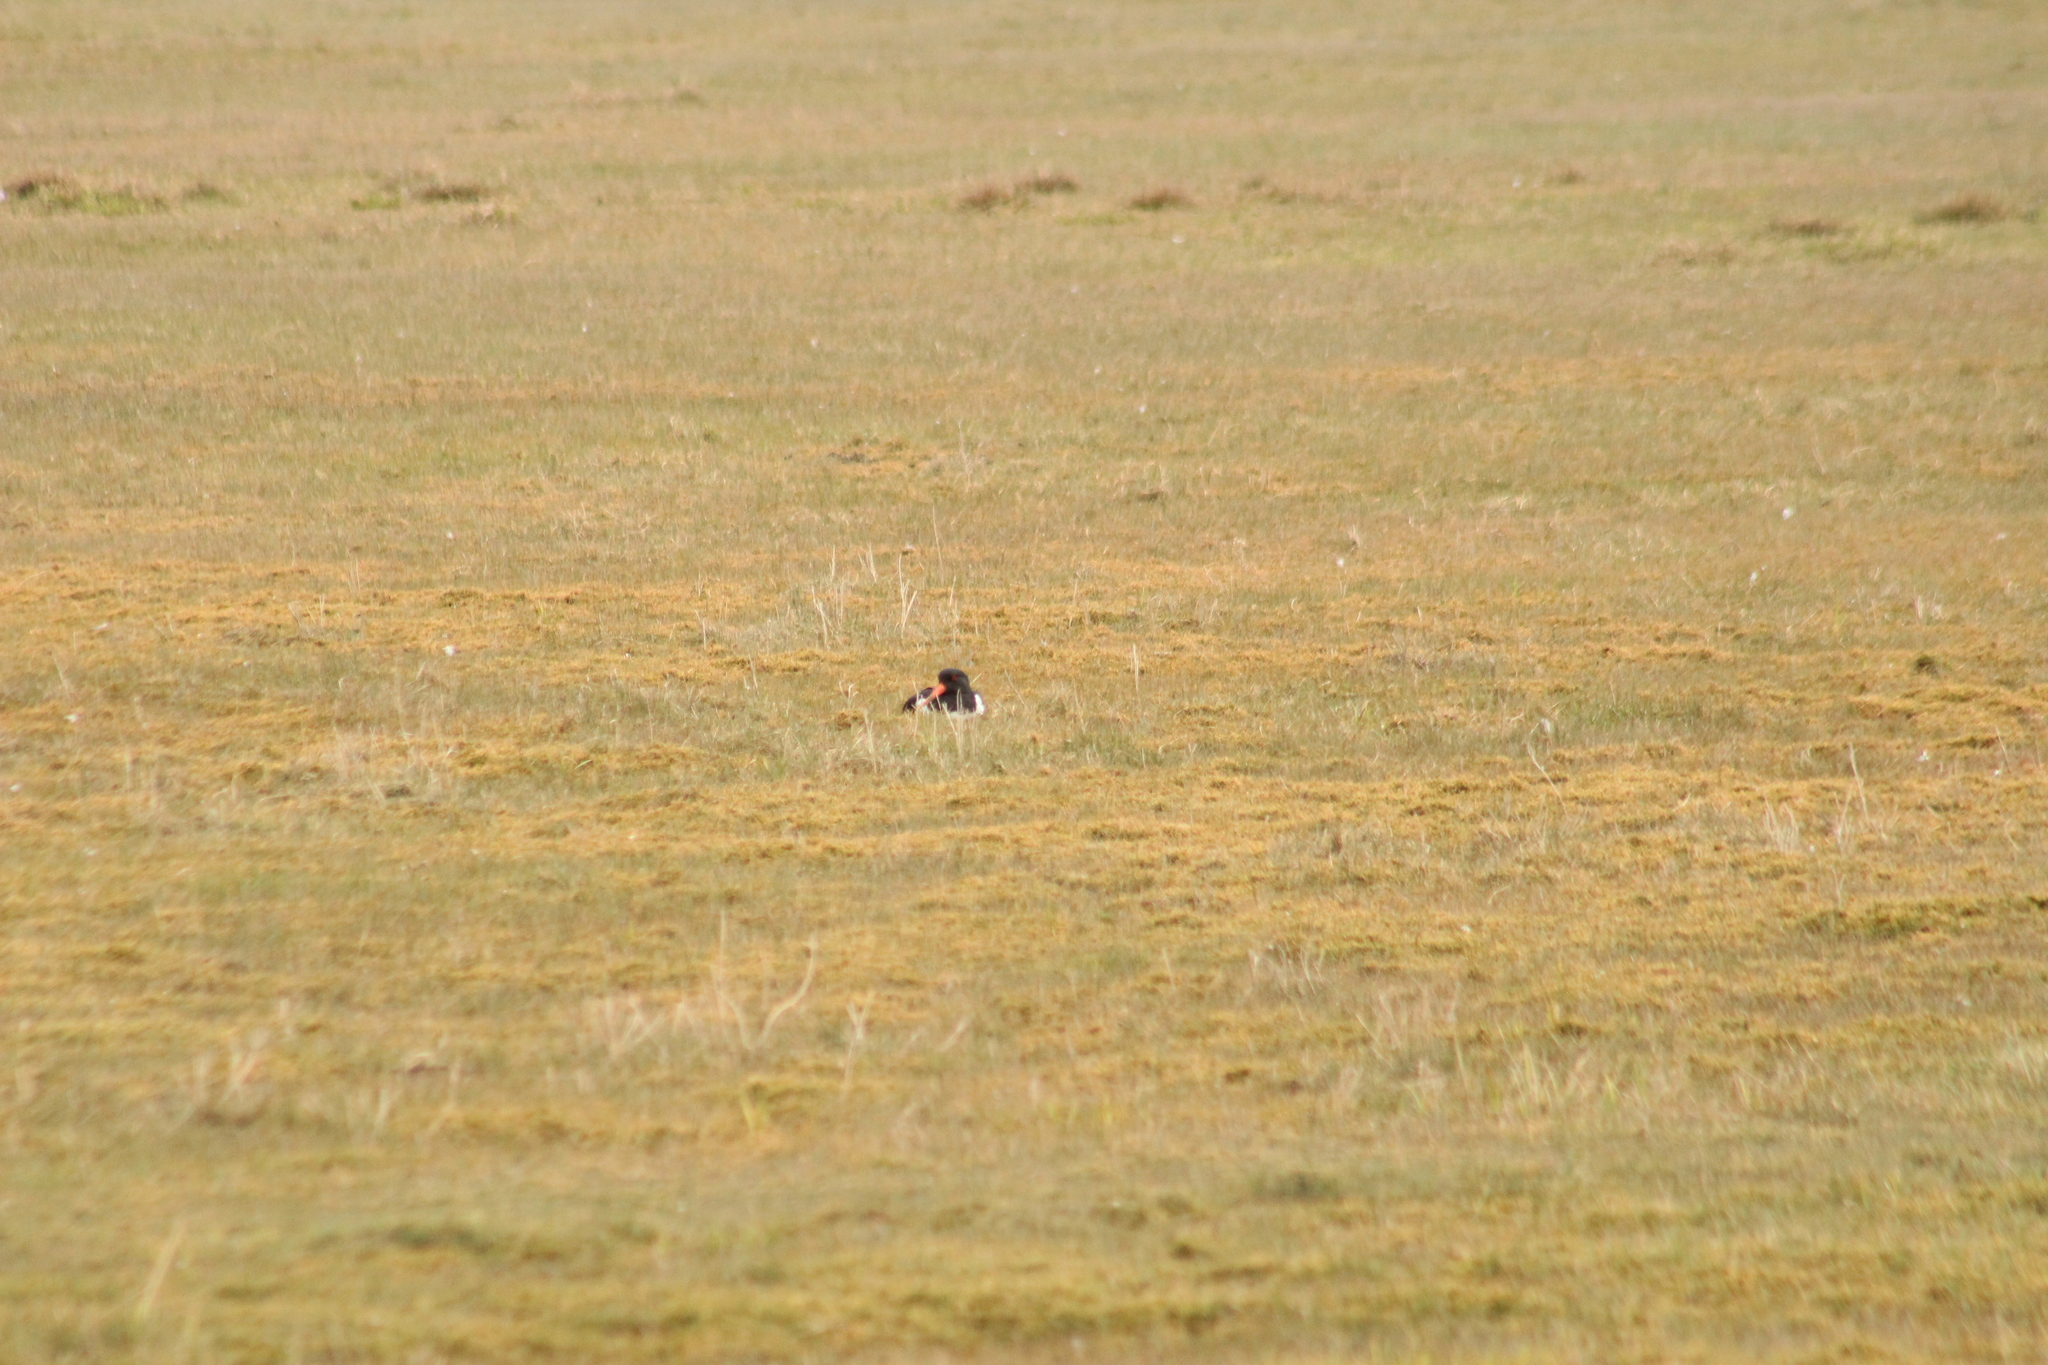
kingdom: Animalia
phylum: Chordata
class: Aves
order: Charadriiformes
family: Haematopodidae
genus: Haematopus
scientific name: Haematopus ostralegus
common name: Eurasian oystercatcher
